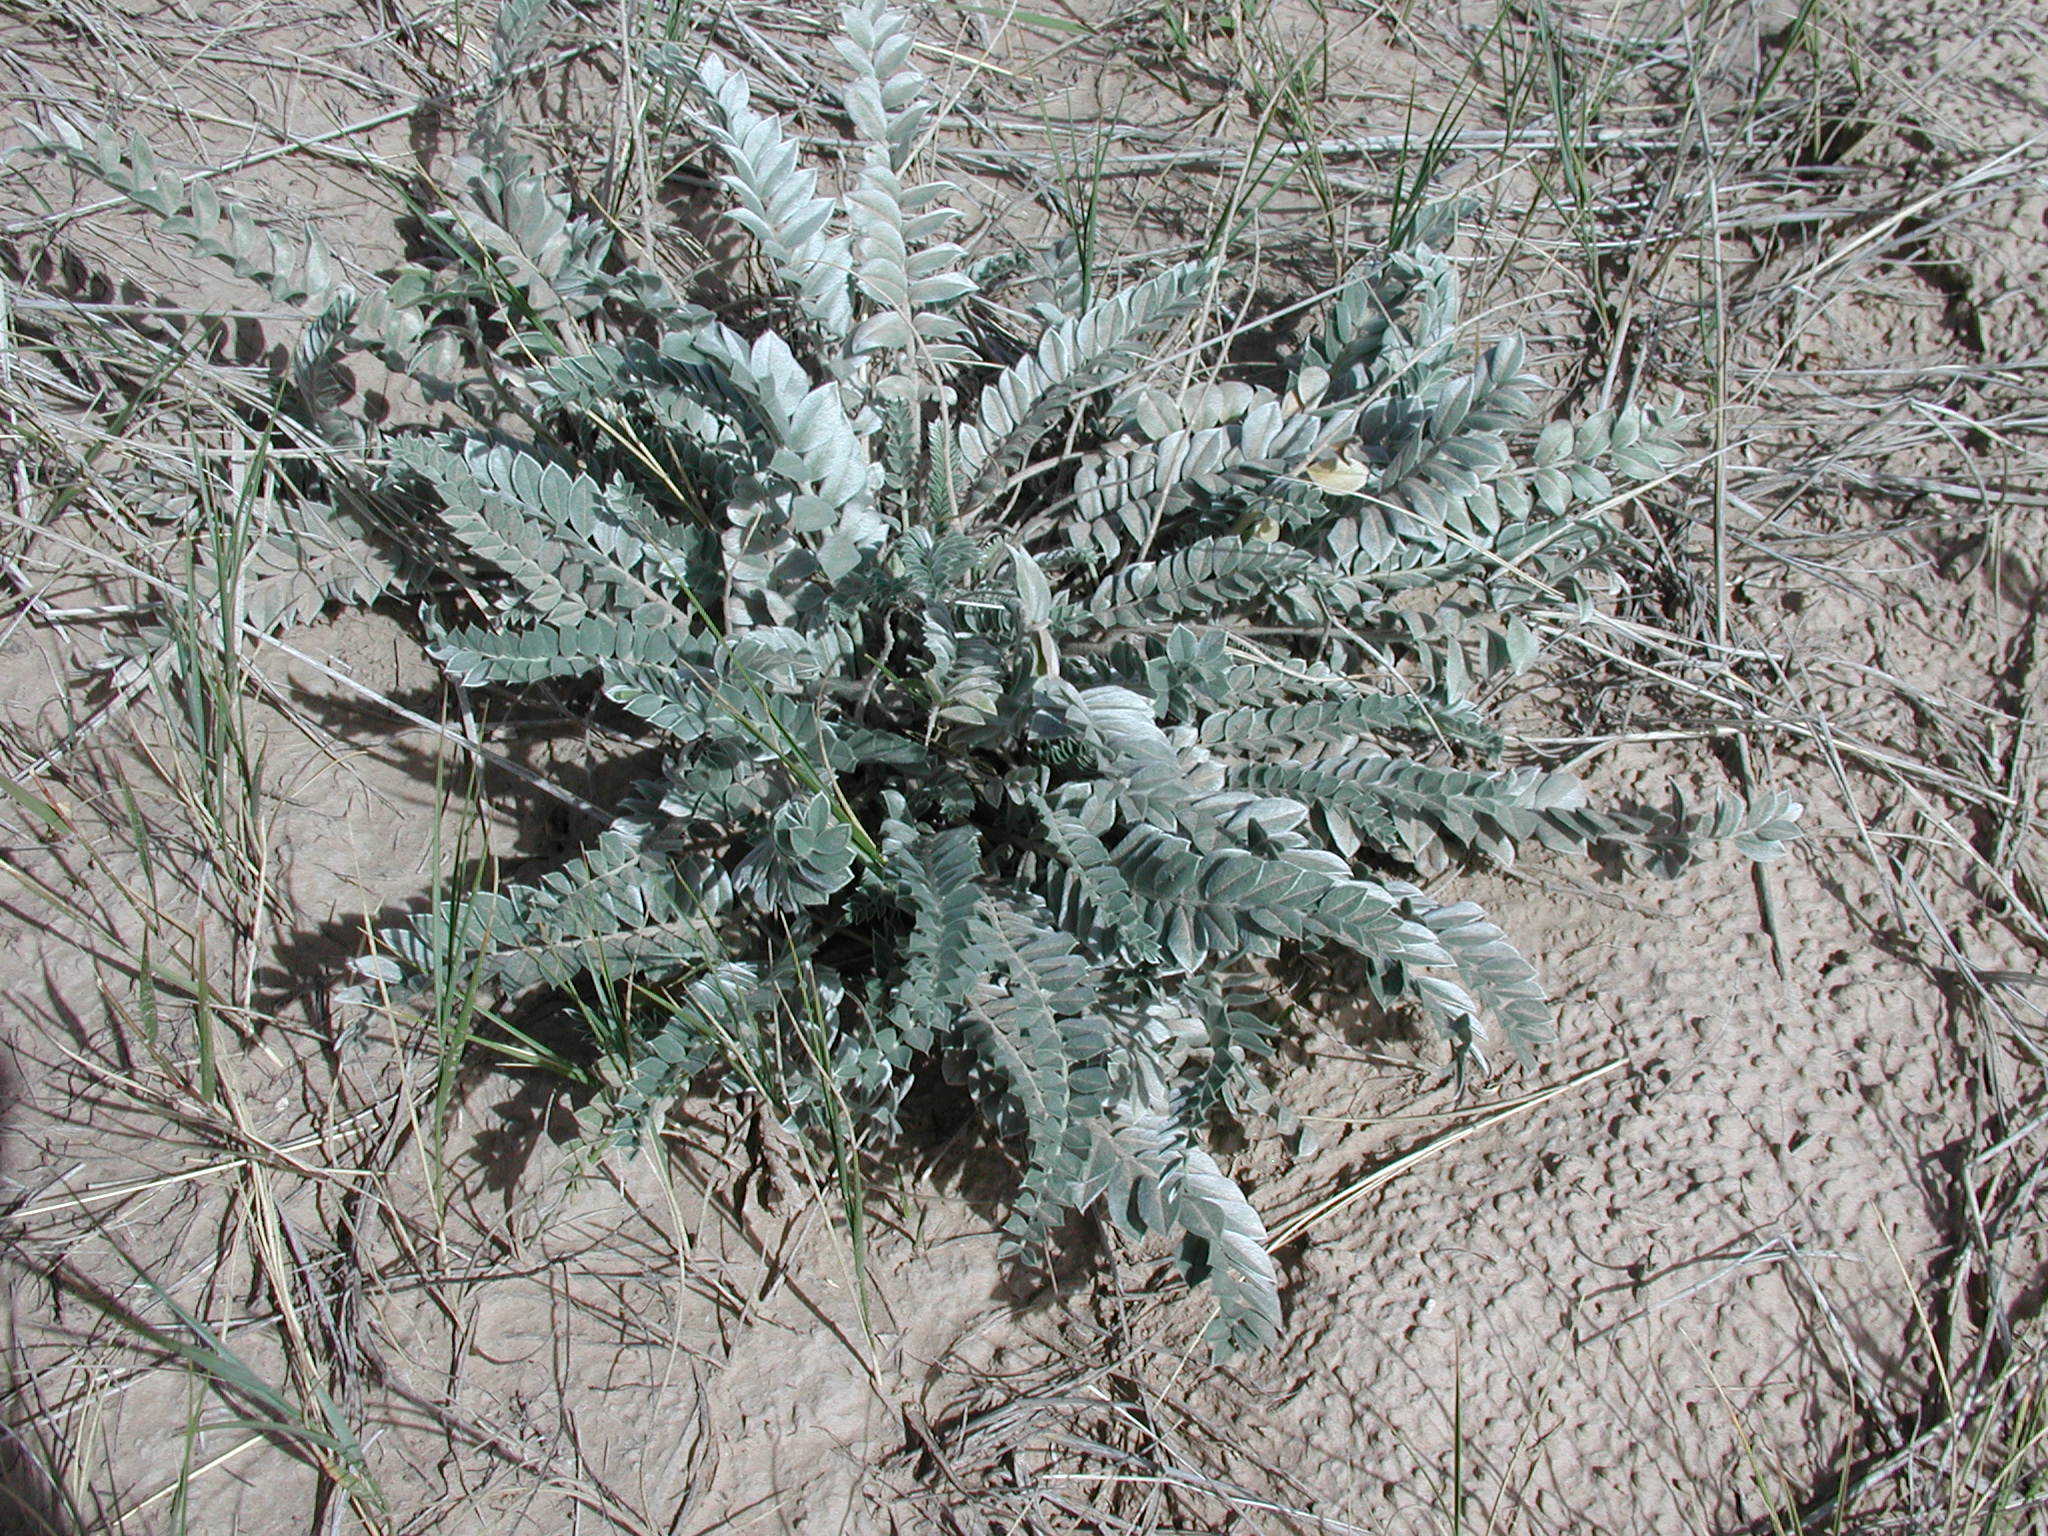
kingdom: Plantae
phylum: Tracheophyta
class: Magnoliopsida
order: Fabales
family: Fabaceae
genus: Astragalus
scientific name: Astragalus mollissimus
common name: Woolly locoweed
